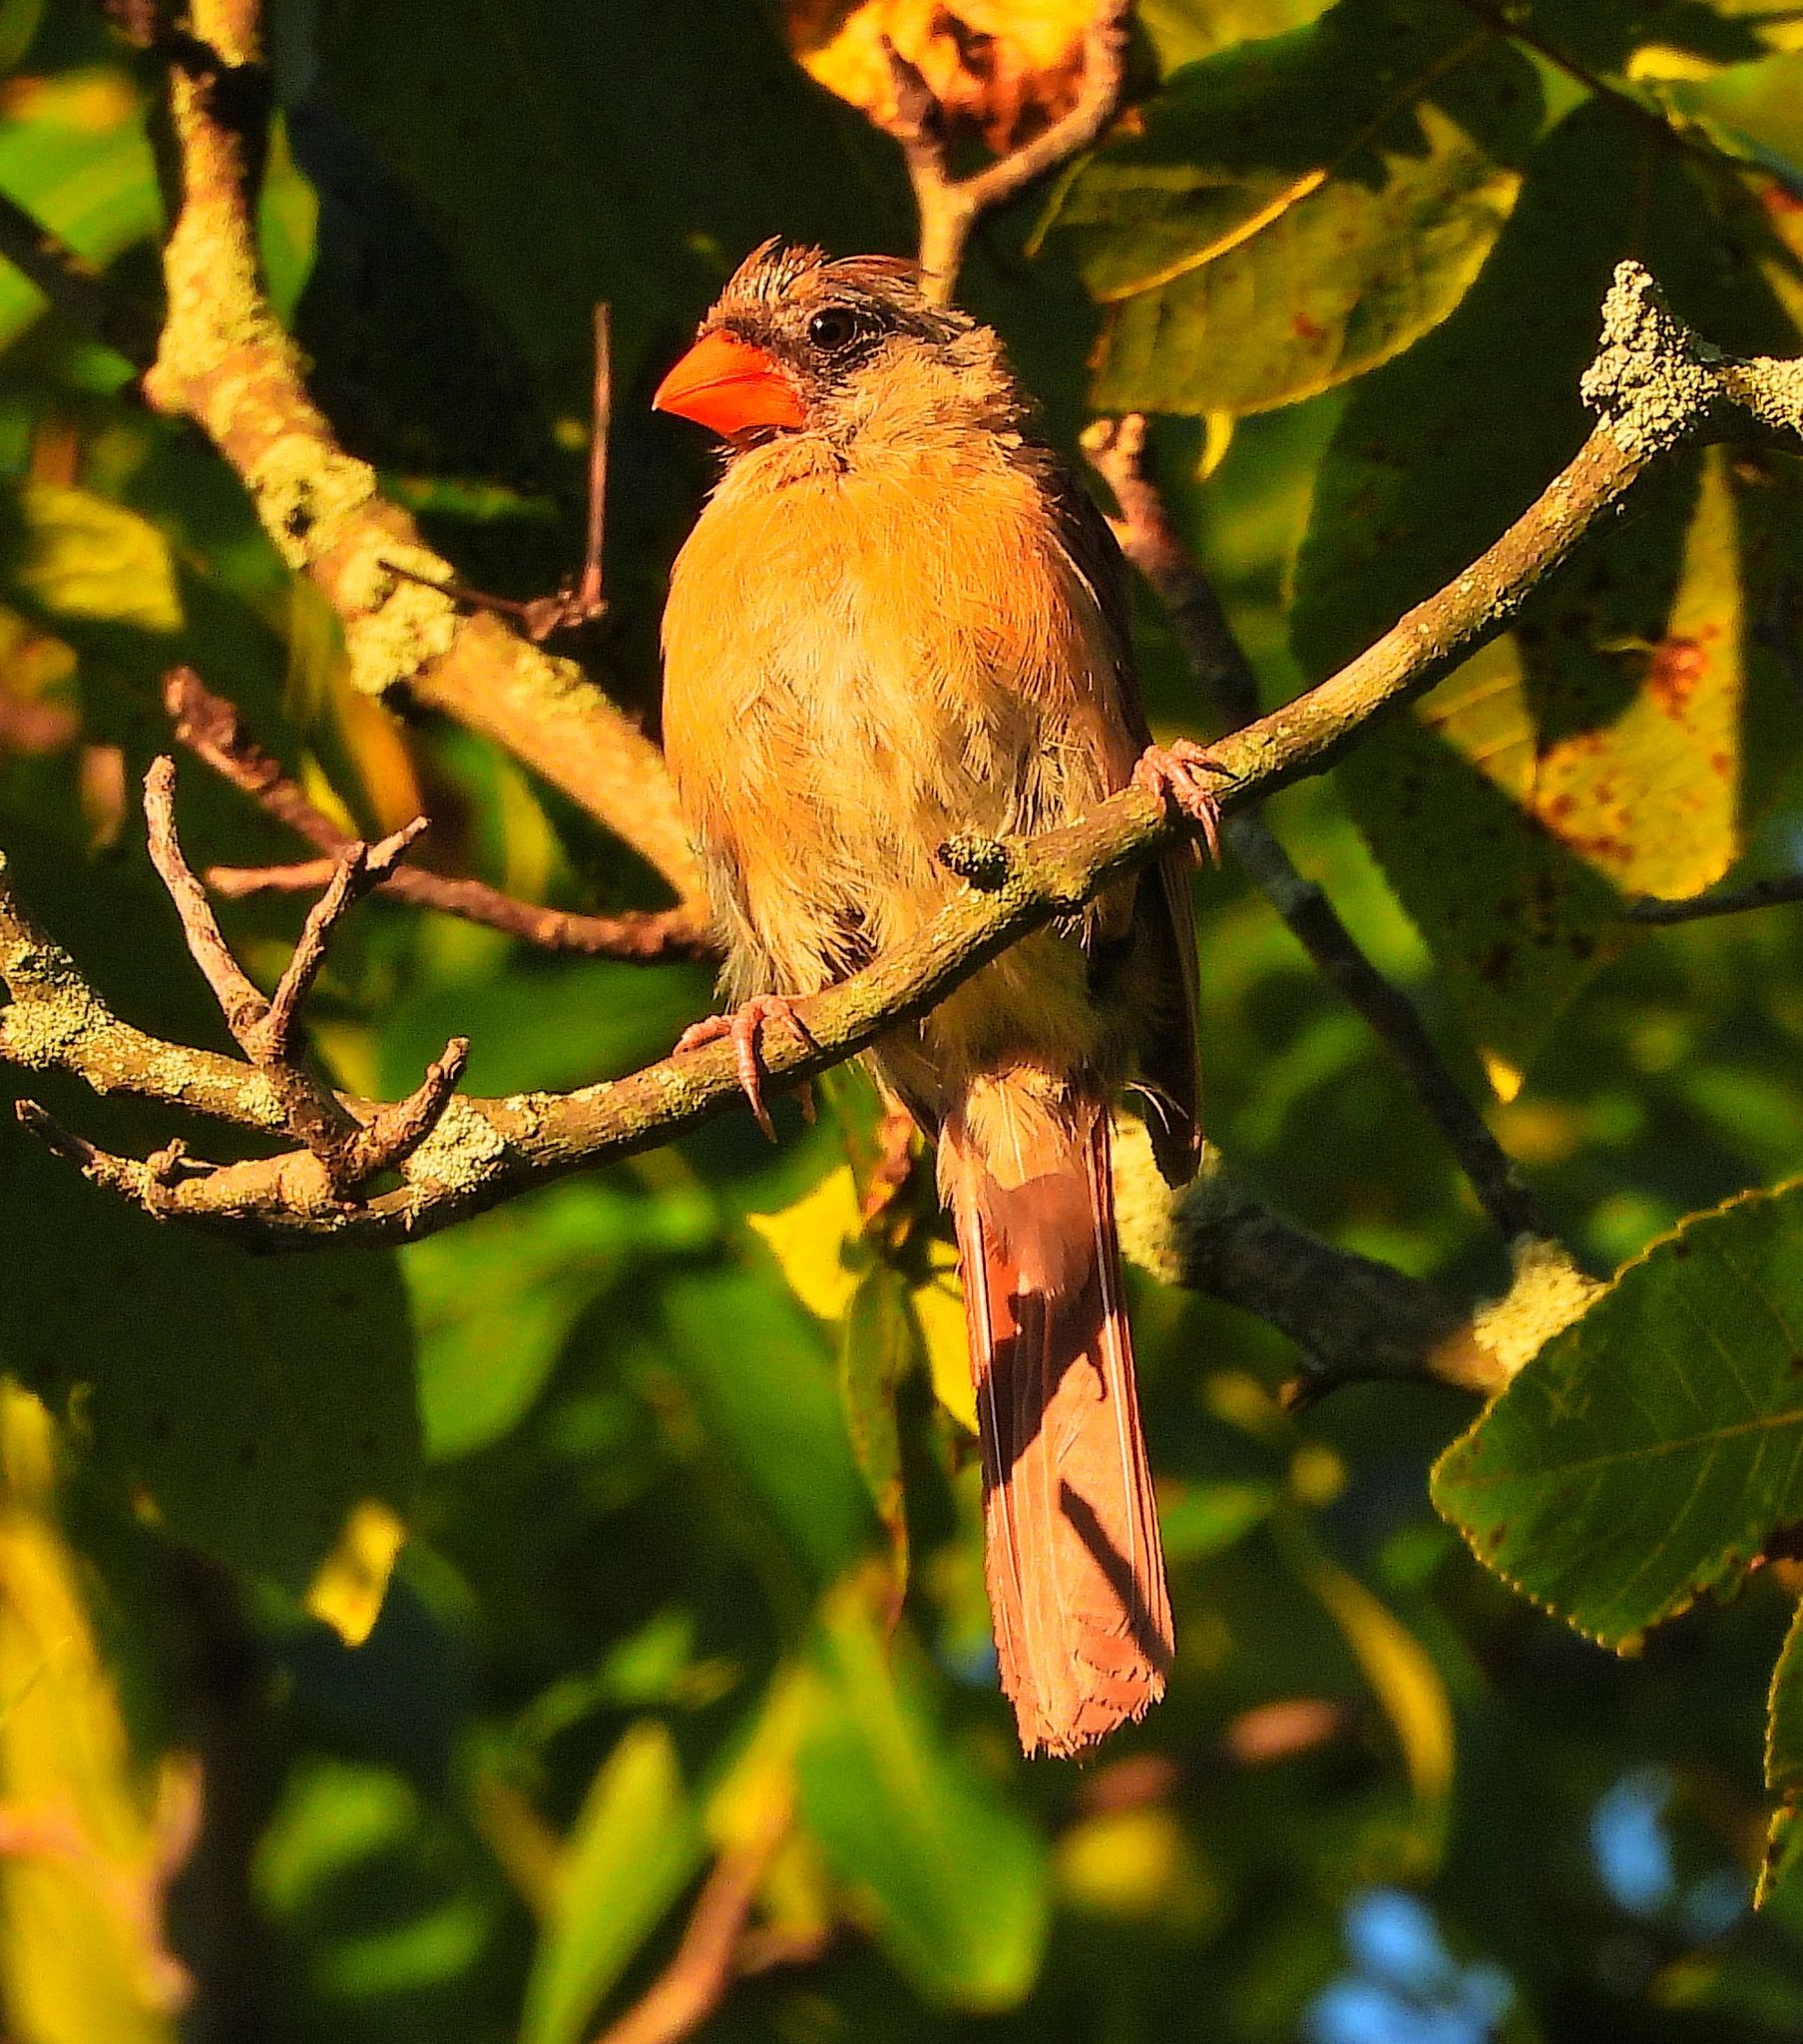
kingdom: Animalia
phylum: Chordata
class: Aves
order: Passeriformes
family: Cardinalidae
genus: Cardinalis
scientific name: Cardinalis cardinalis
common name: Northern cardinal
